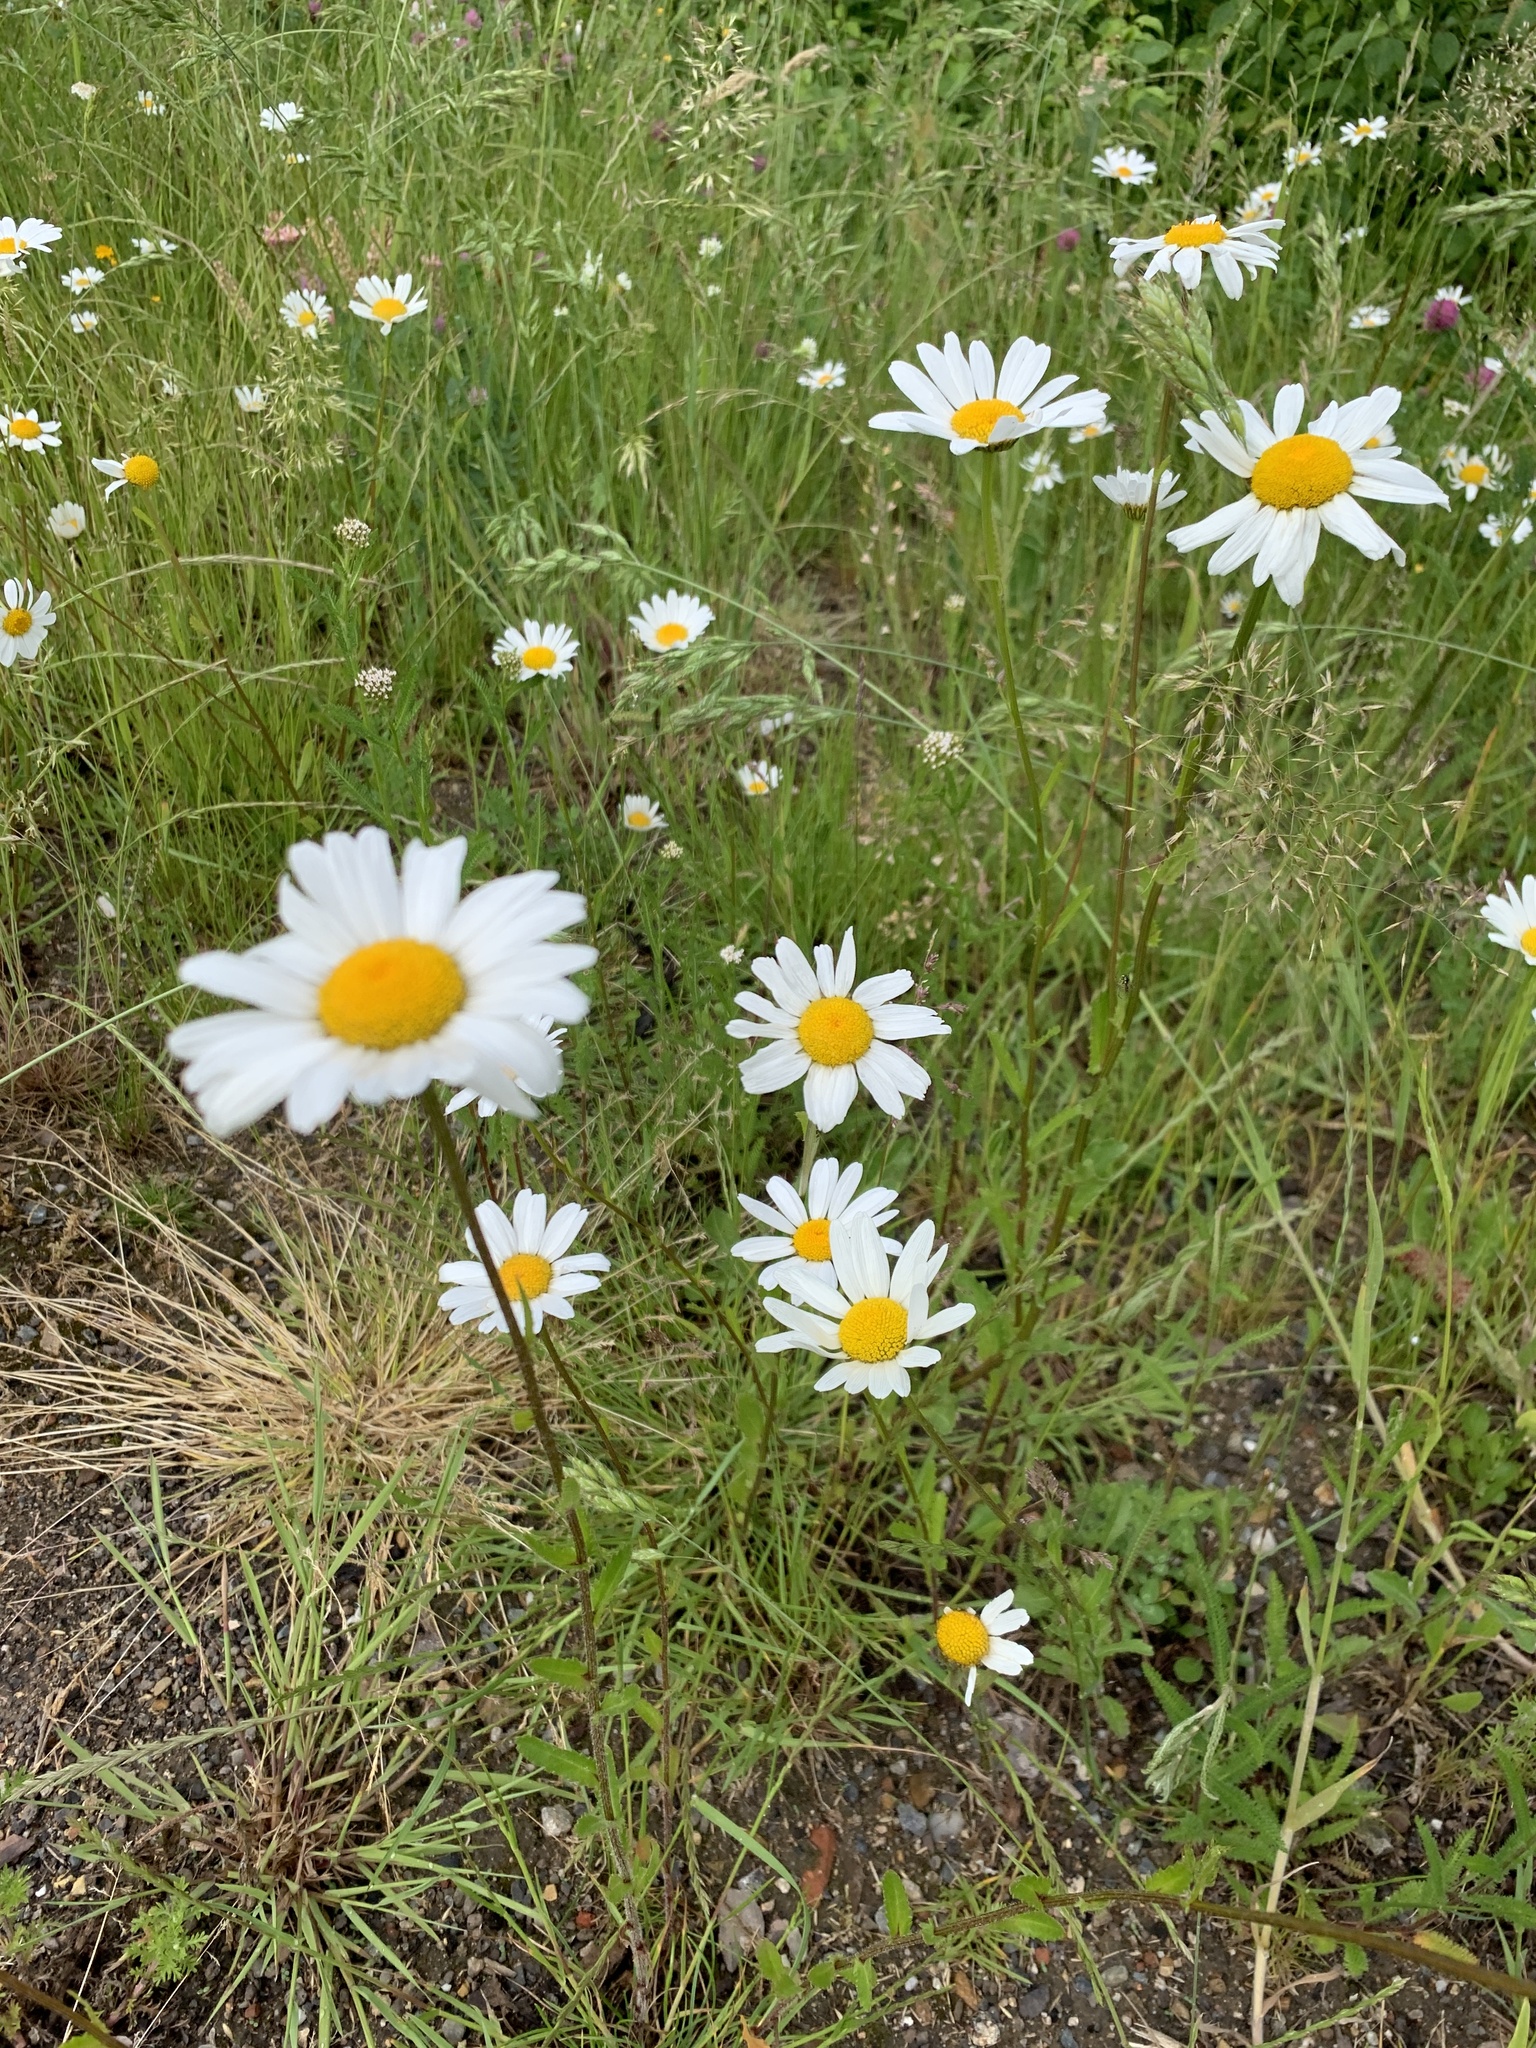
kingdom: Plantae
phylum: Tracheophyta
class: Magnoliopsida
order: Asterales
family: Asteraceae
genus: Leucanthemum
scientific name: Leucanthemum vulgare
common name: Oxeye daisy
